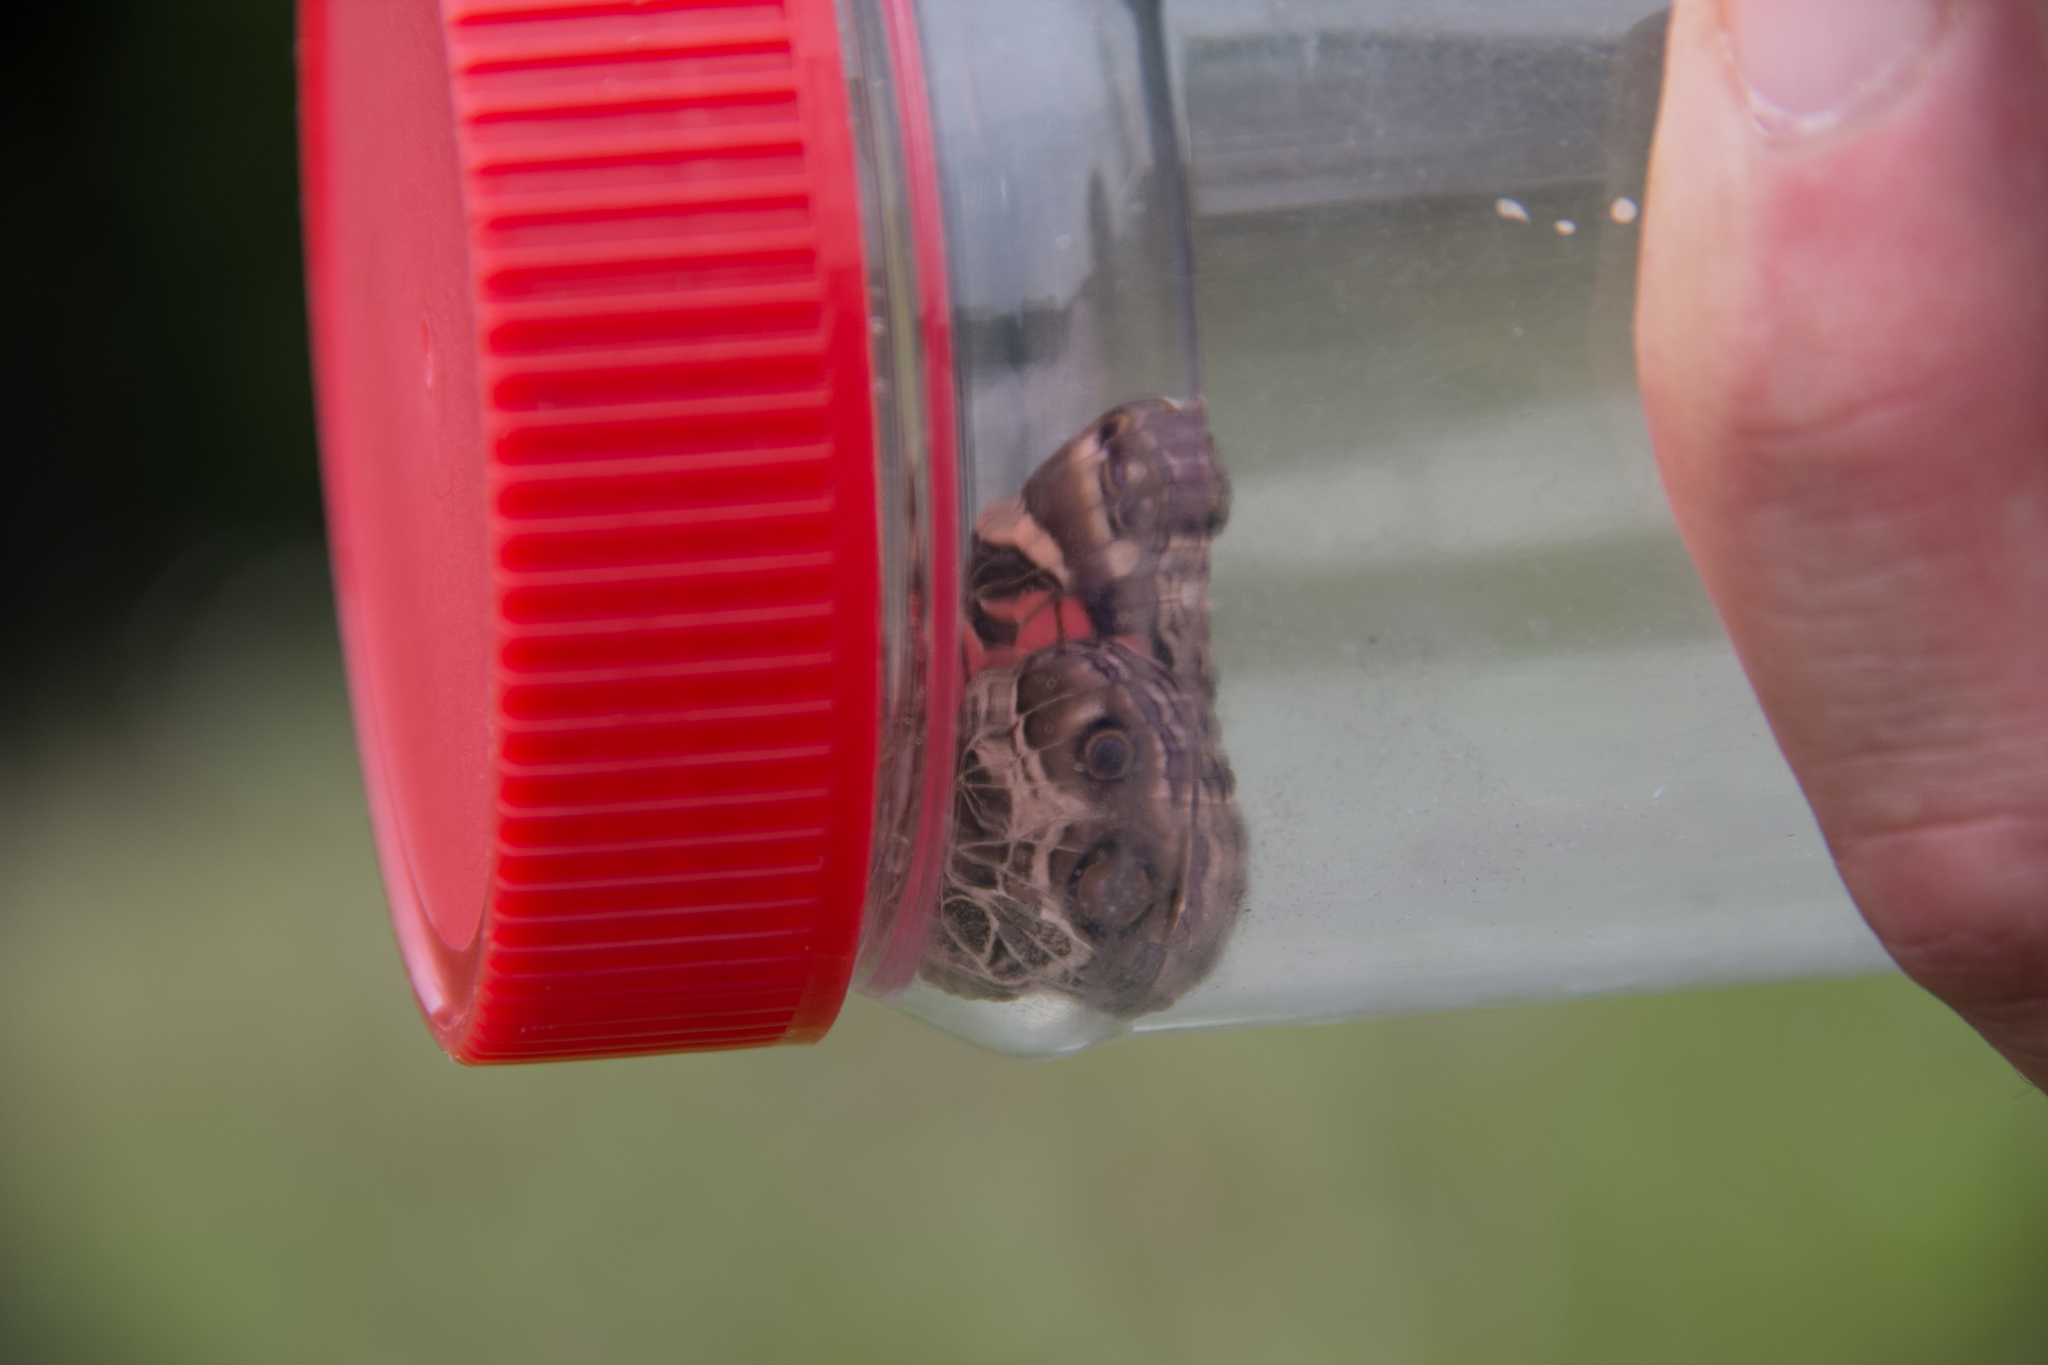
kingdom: Animalia
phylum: Arthropoda
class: Insecta
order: Lepidoptera
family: Nymphalidae
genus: Vanessa
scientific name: Vanessa virginiensis
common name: American lady
